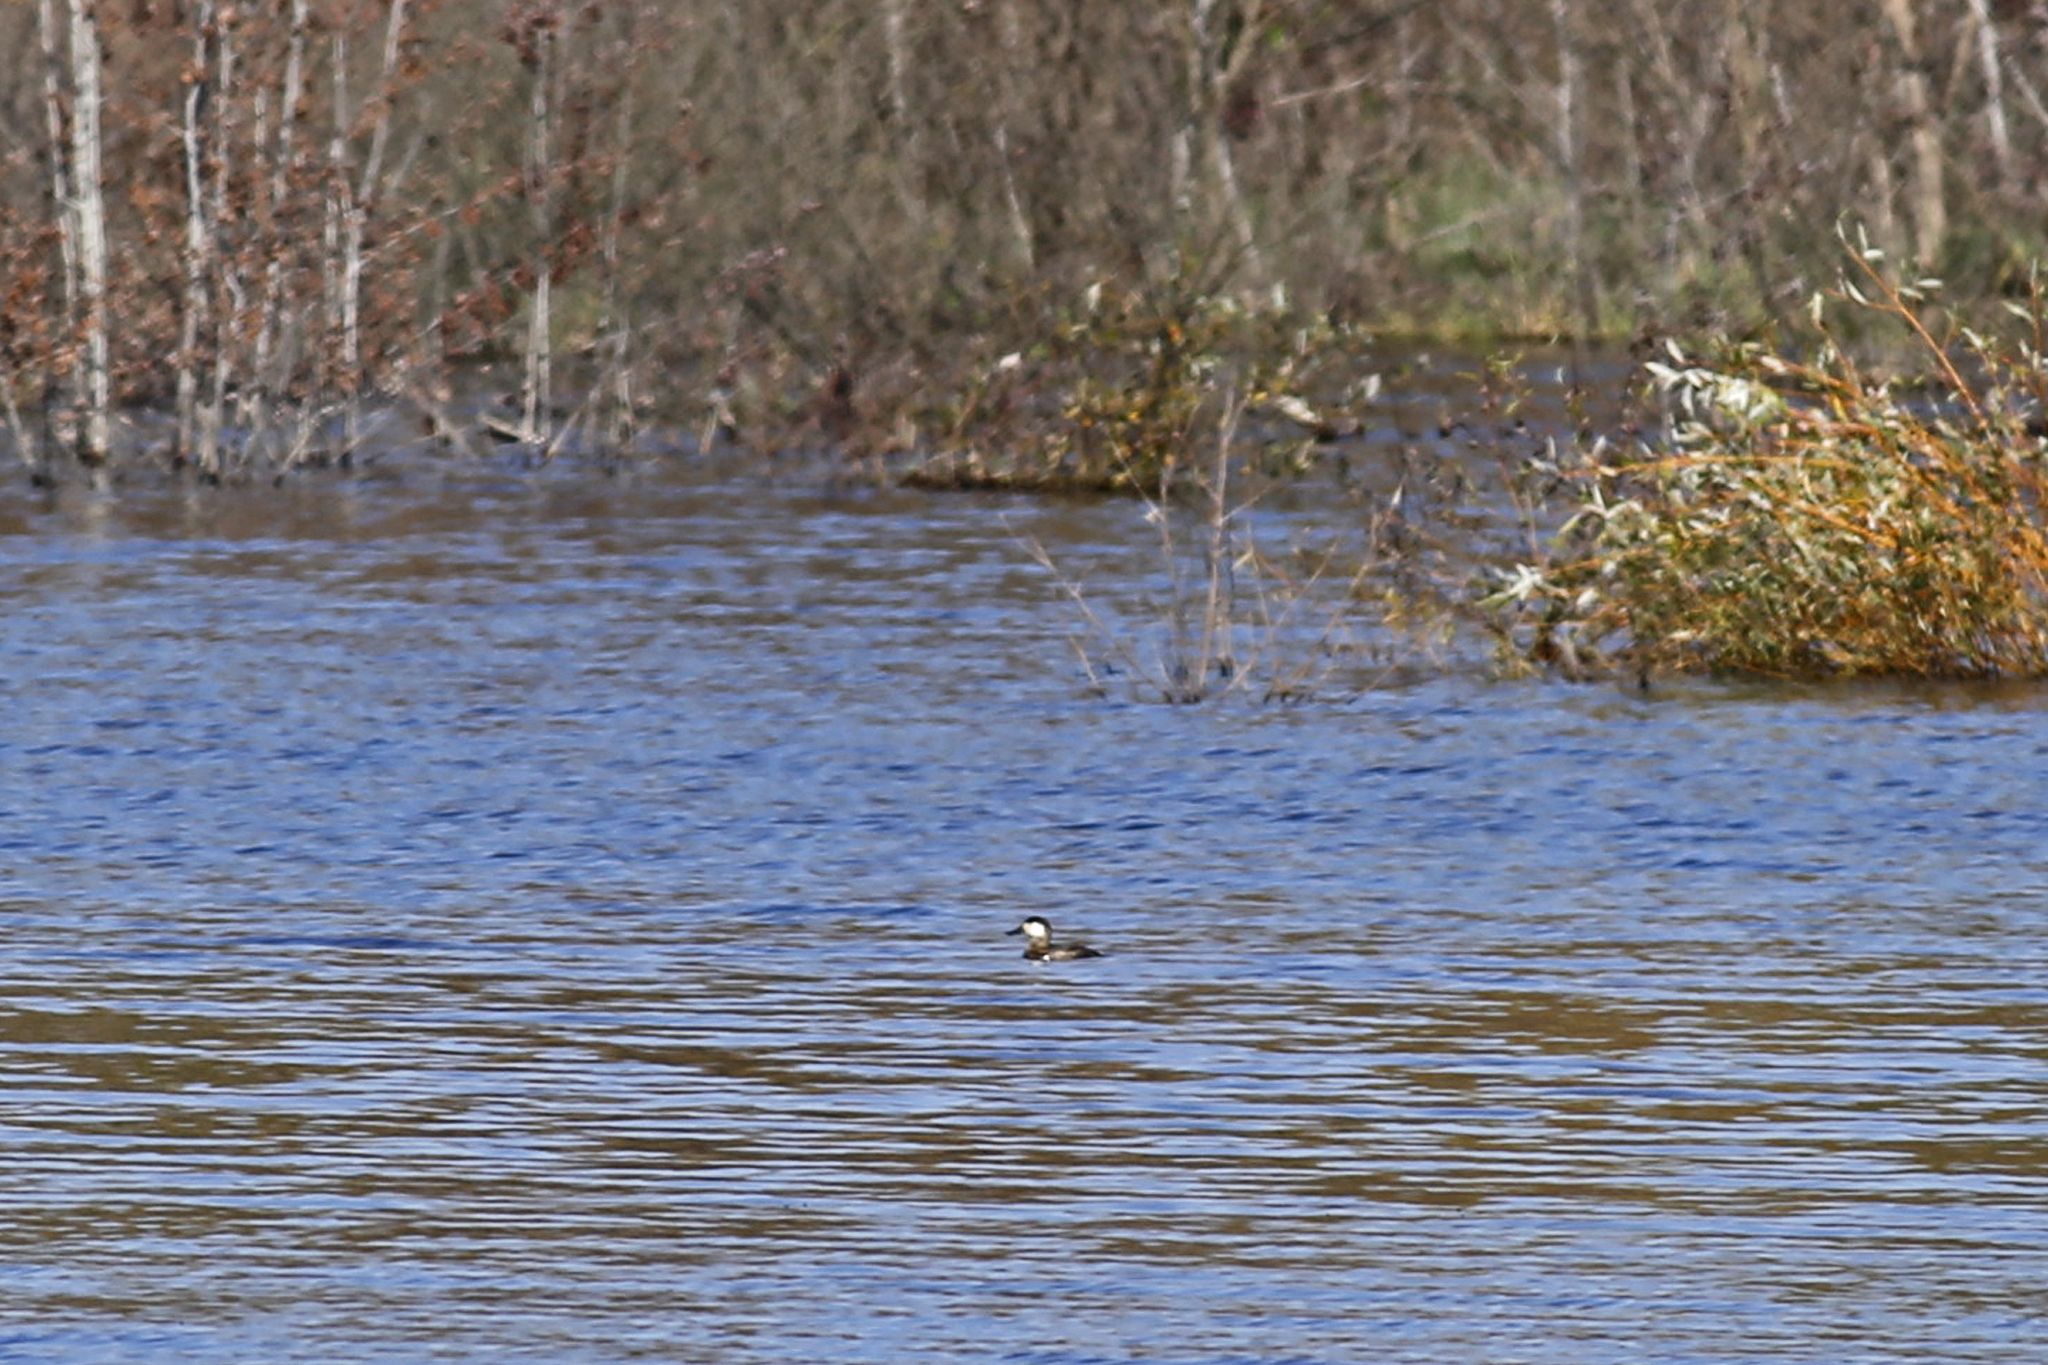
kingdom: Animalia
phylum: Chordata
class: Aves
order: Anseriformes
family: Anatidae
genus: Oxyura
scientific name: Oxyura jamaicensis
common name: Ruddy duck
